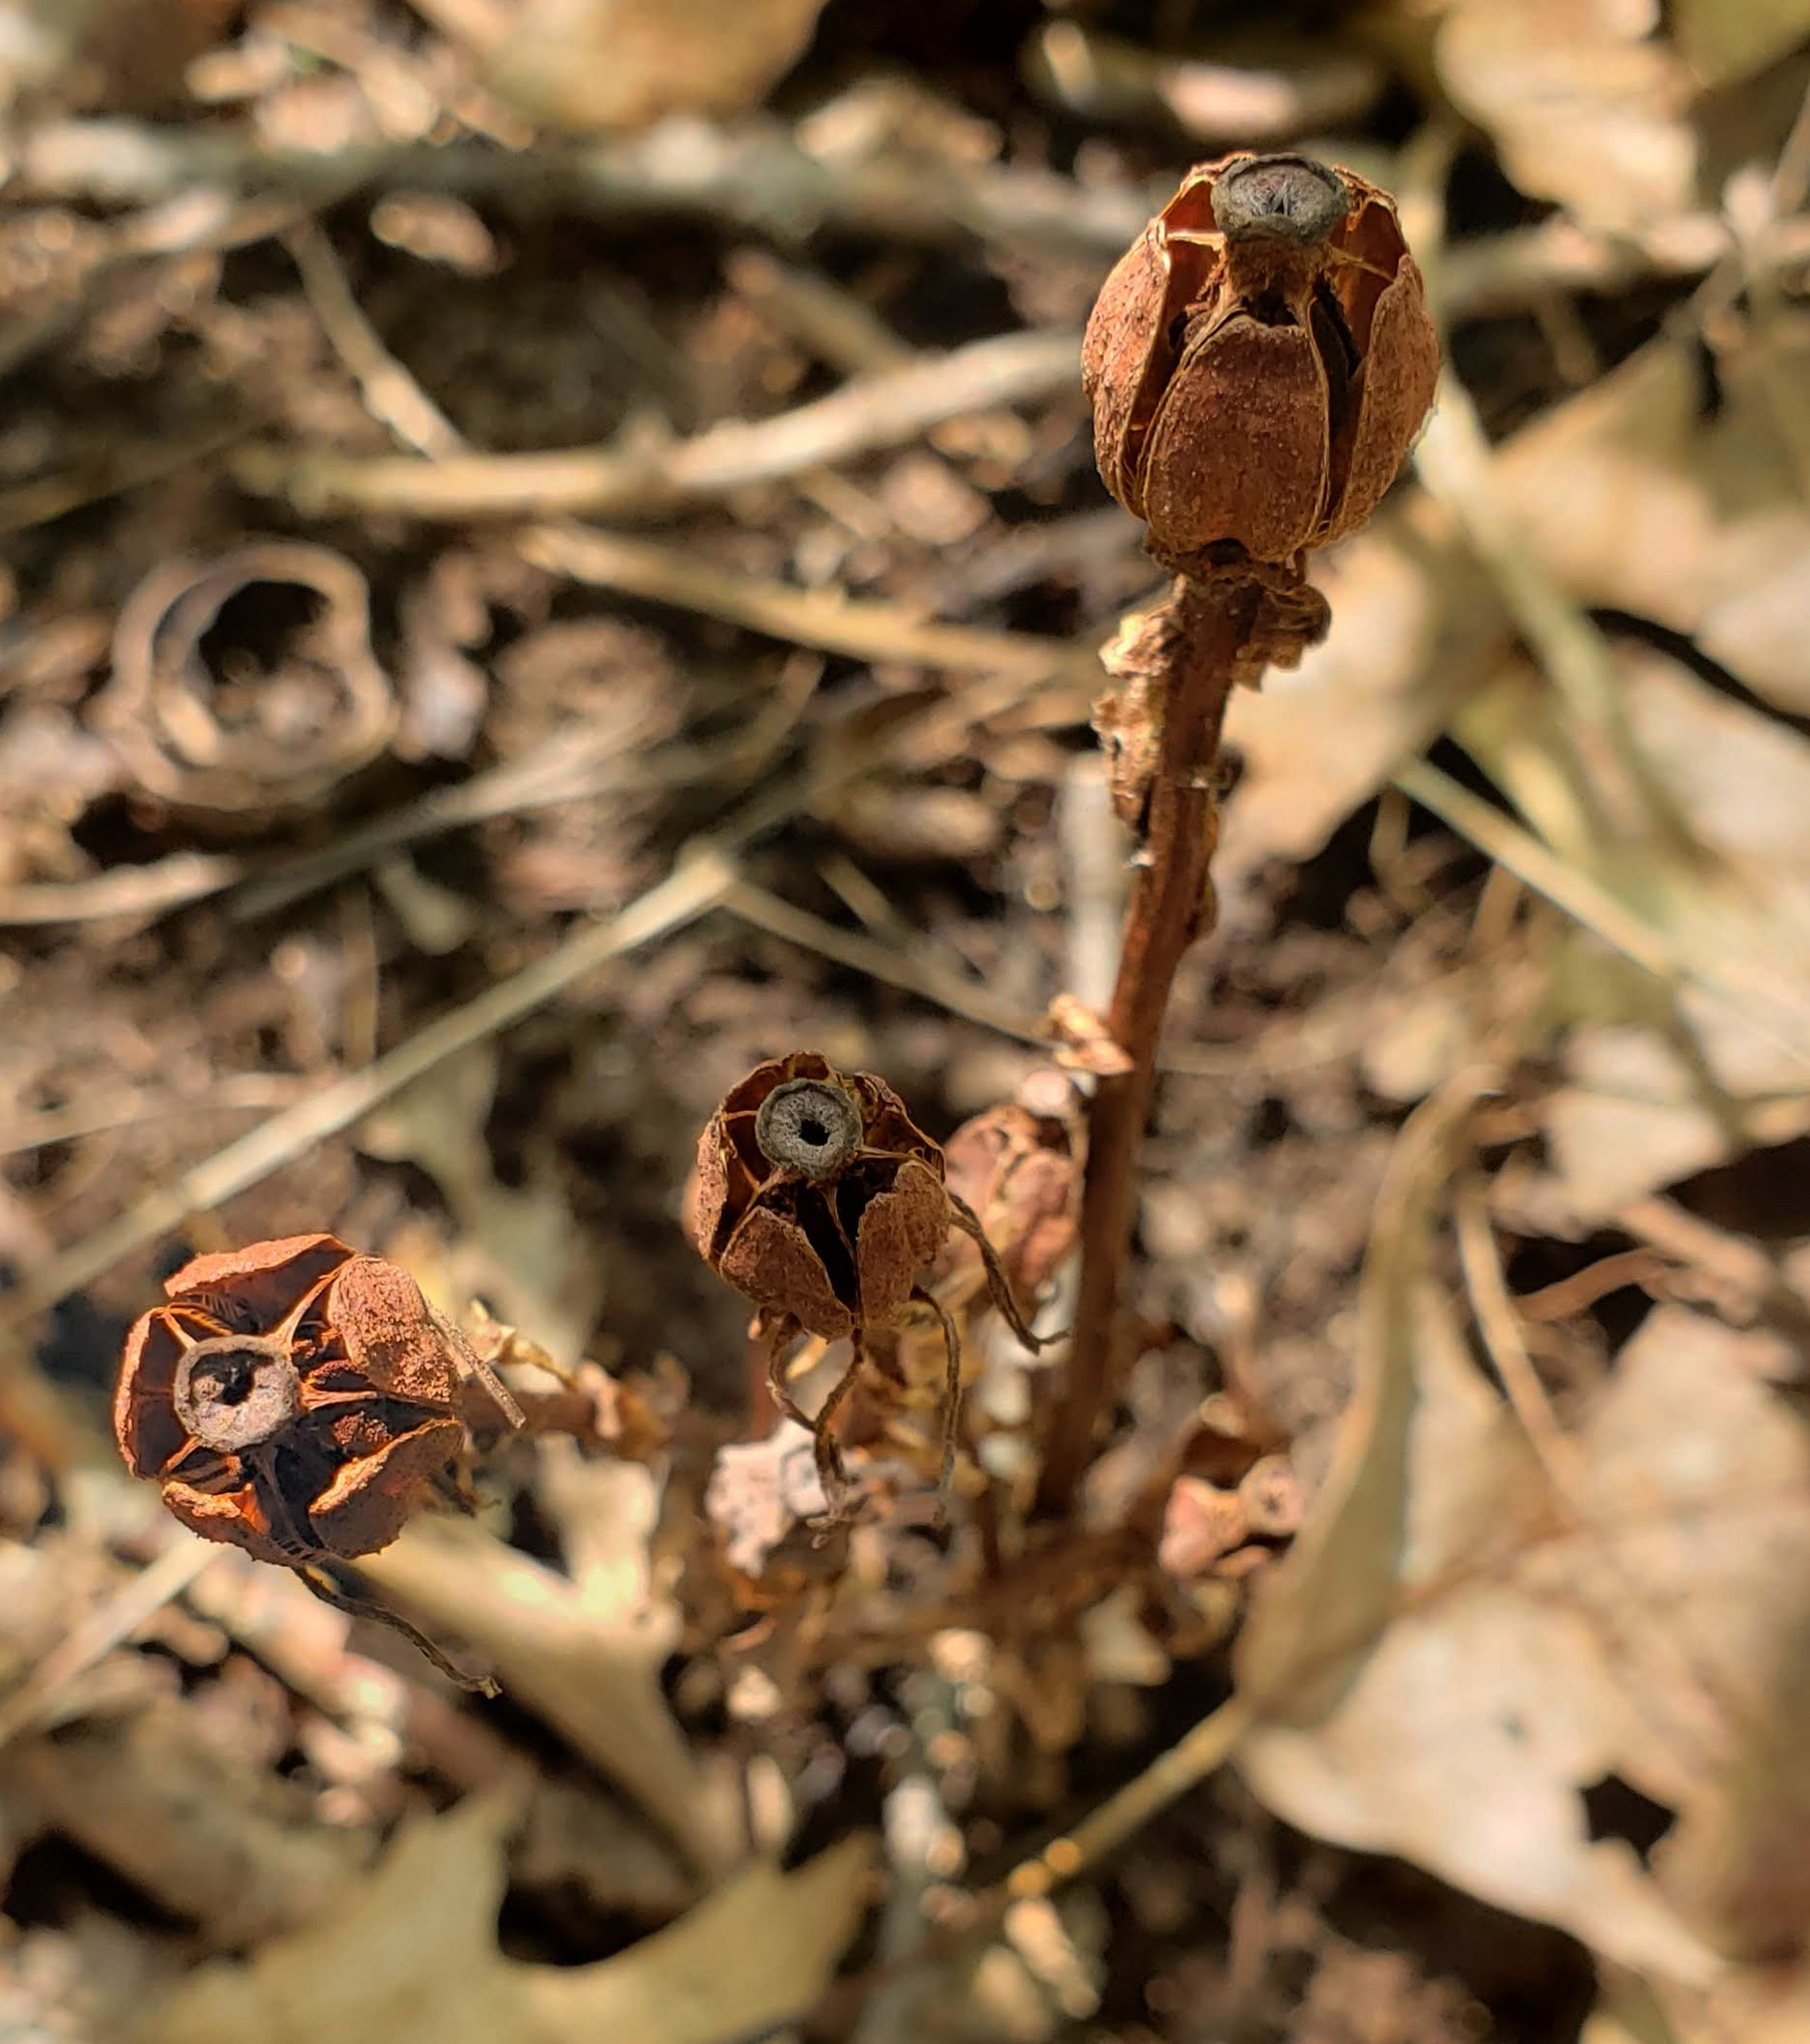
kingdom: Plantae
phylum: Tracheophyta
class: Magnoliopsida
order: Ericales
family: Ericaceae
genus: Monotropa
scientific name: Monotropa uniflora
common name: Convulsion root
